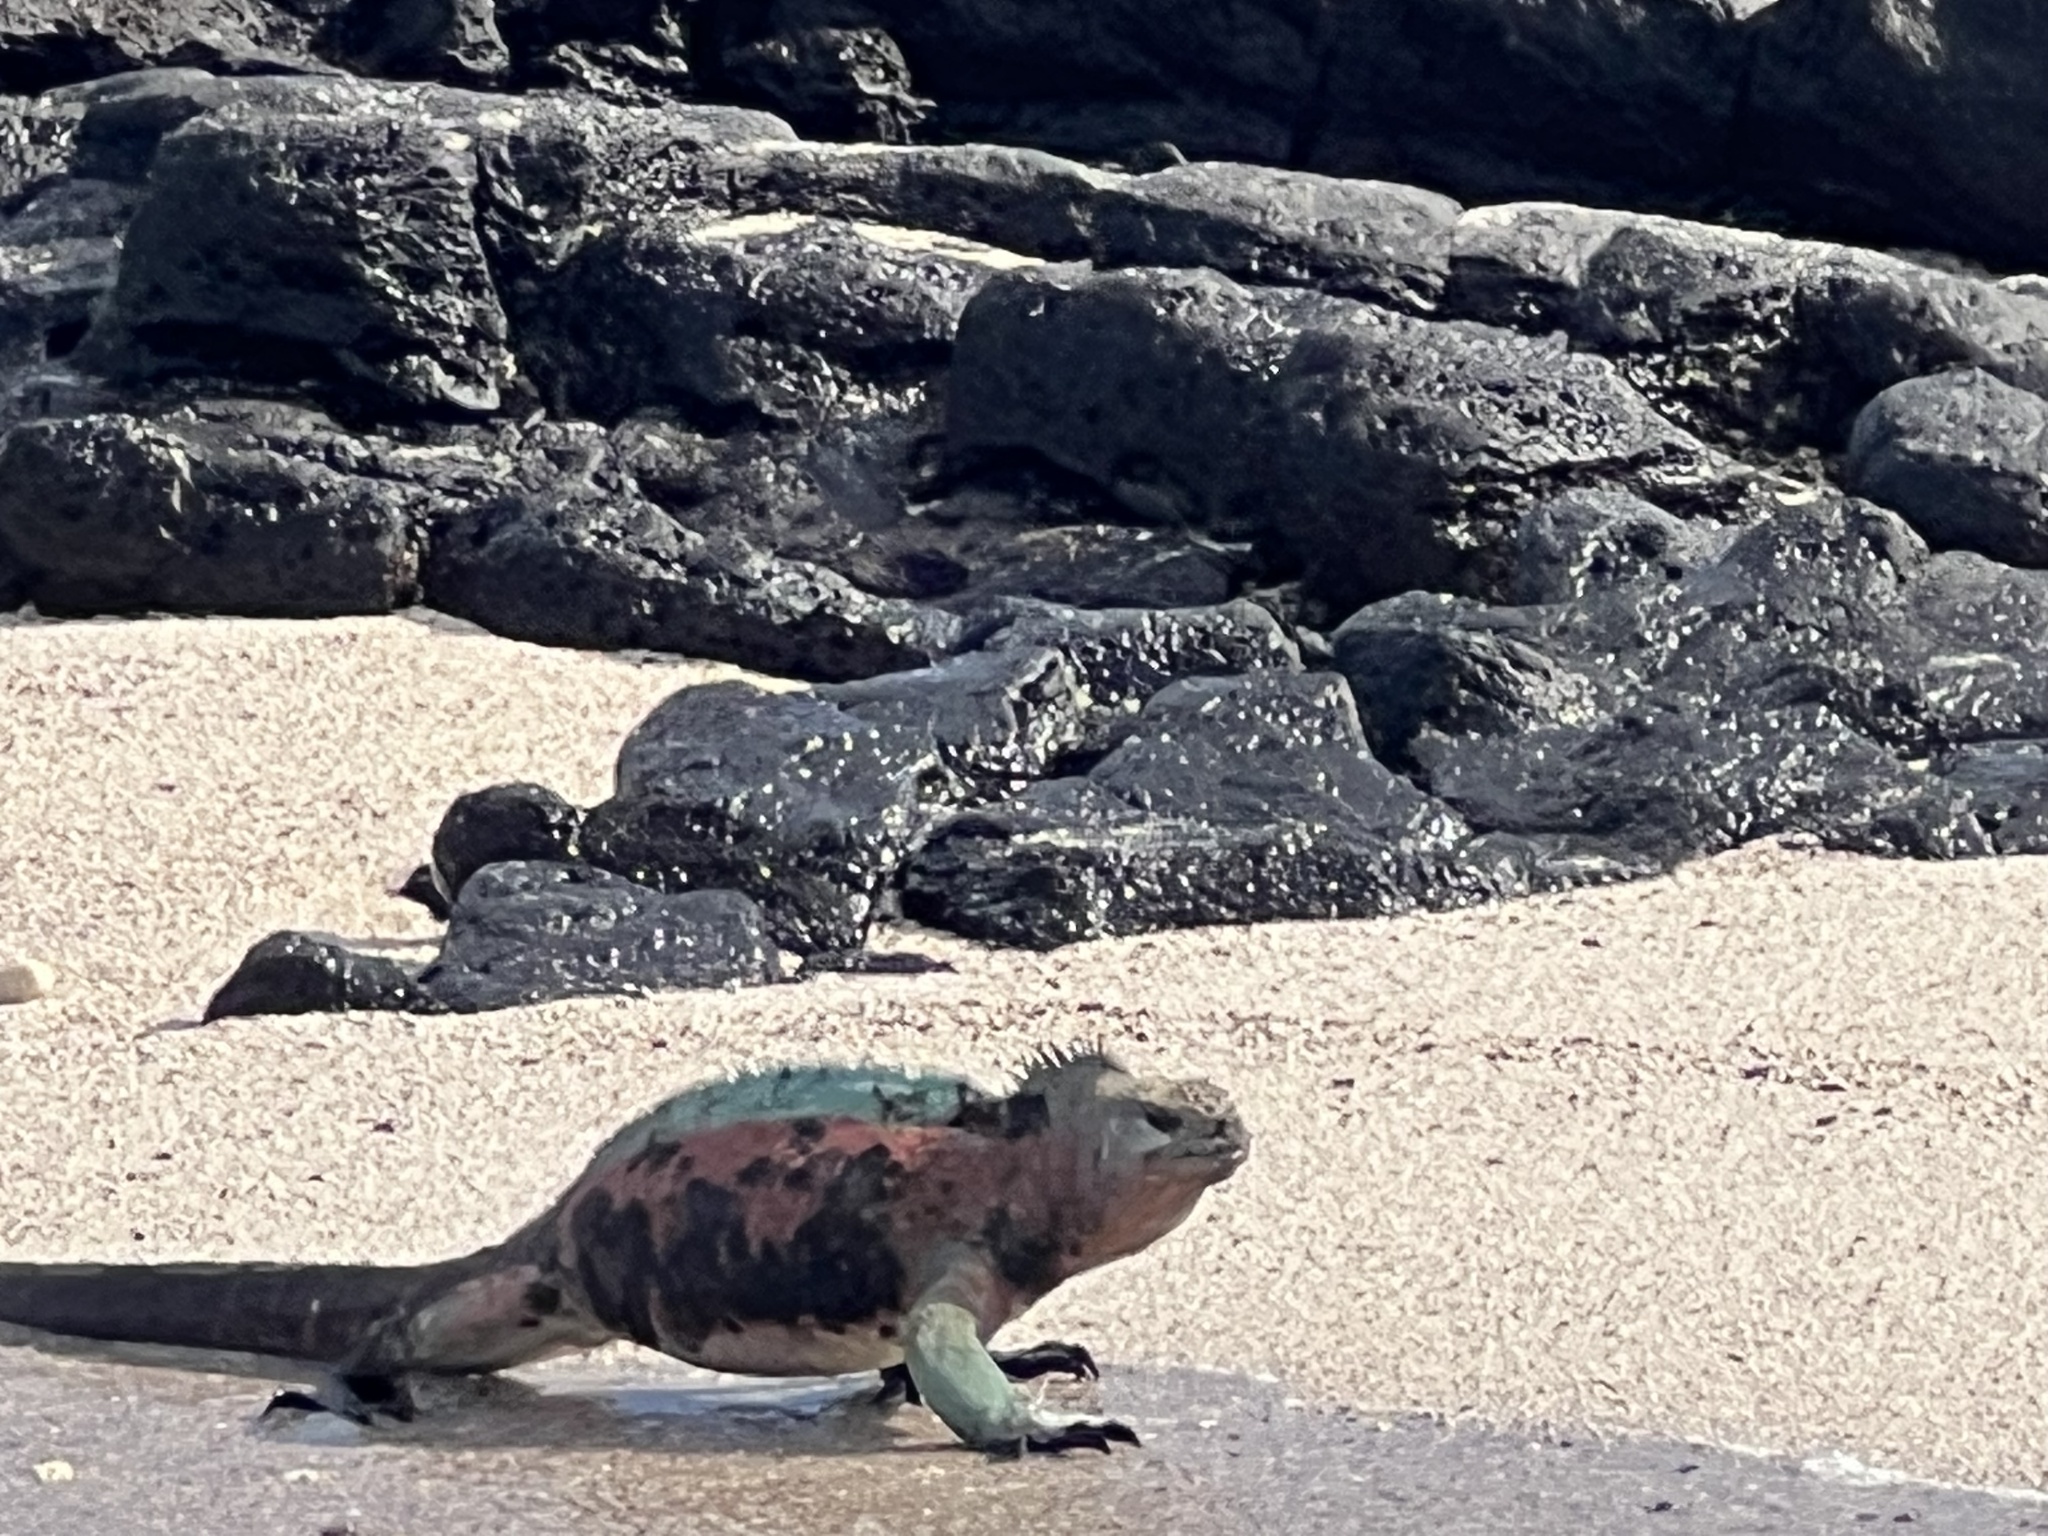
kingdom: Animalia
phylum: Chordata
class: Squamata
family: Iguanidae
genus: Amblyrhynchus
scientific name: Amblyrhynchus cristatus
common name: Marine iguana
